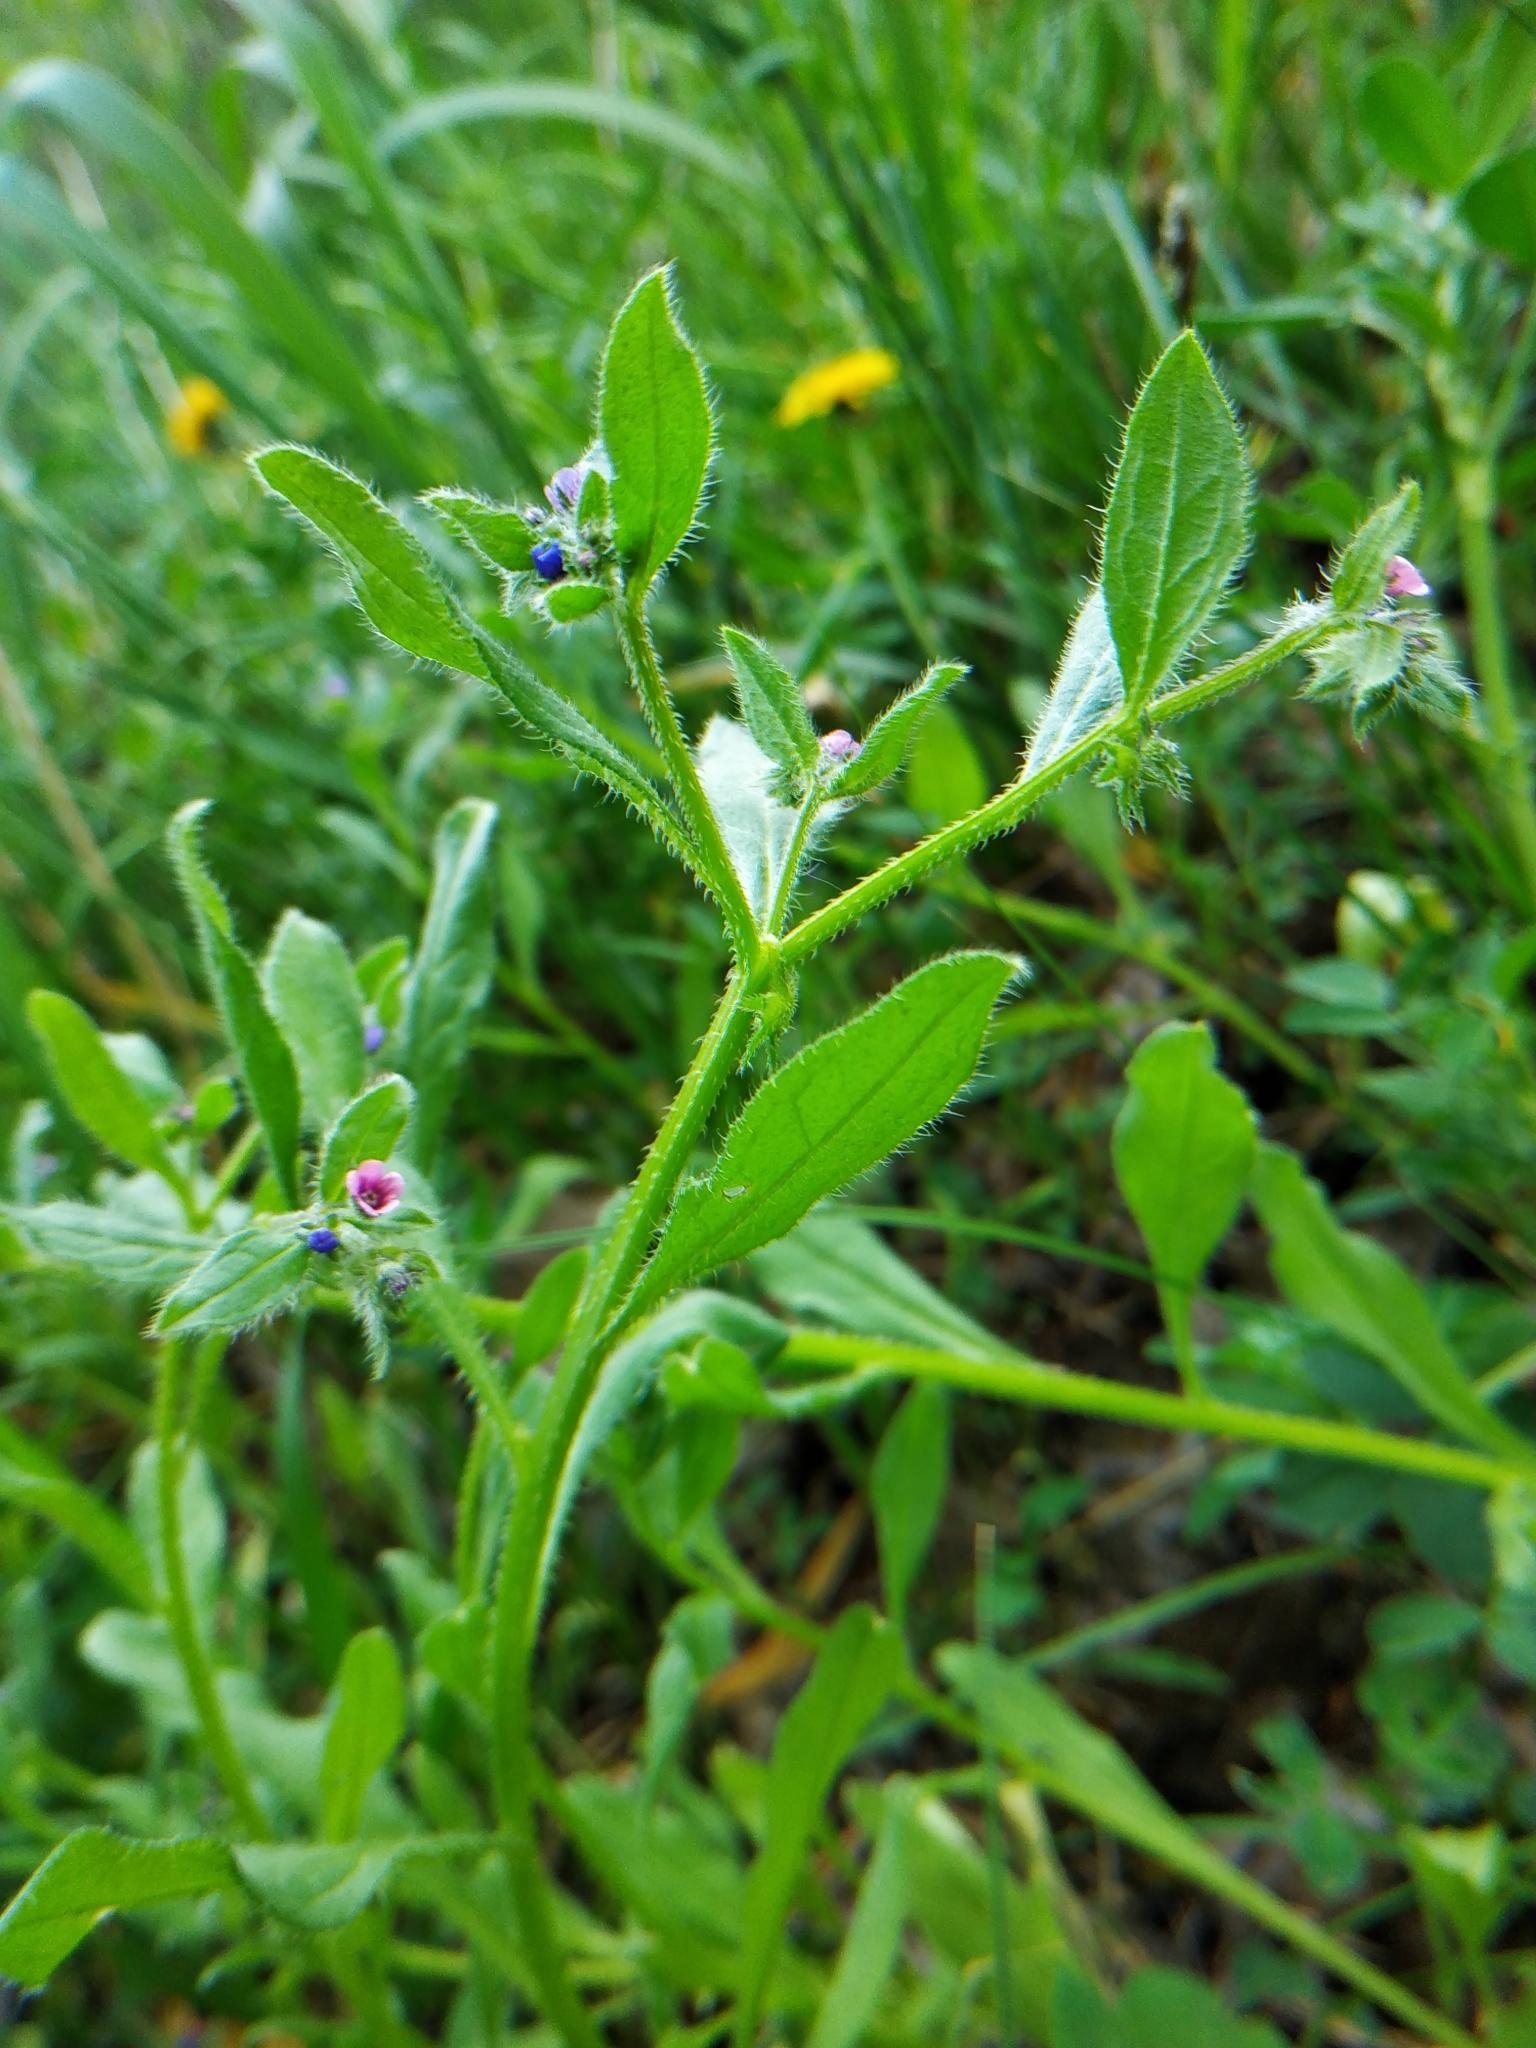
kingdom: Plantae
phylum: Tracheophyta
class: Magnoliopsida
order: Boraginales
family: Boraginaceae
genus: Asperugo
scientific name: Asperugo procumbens
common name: Madwort
